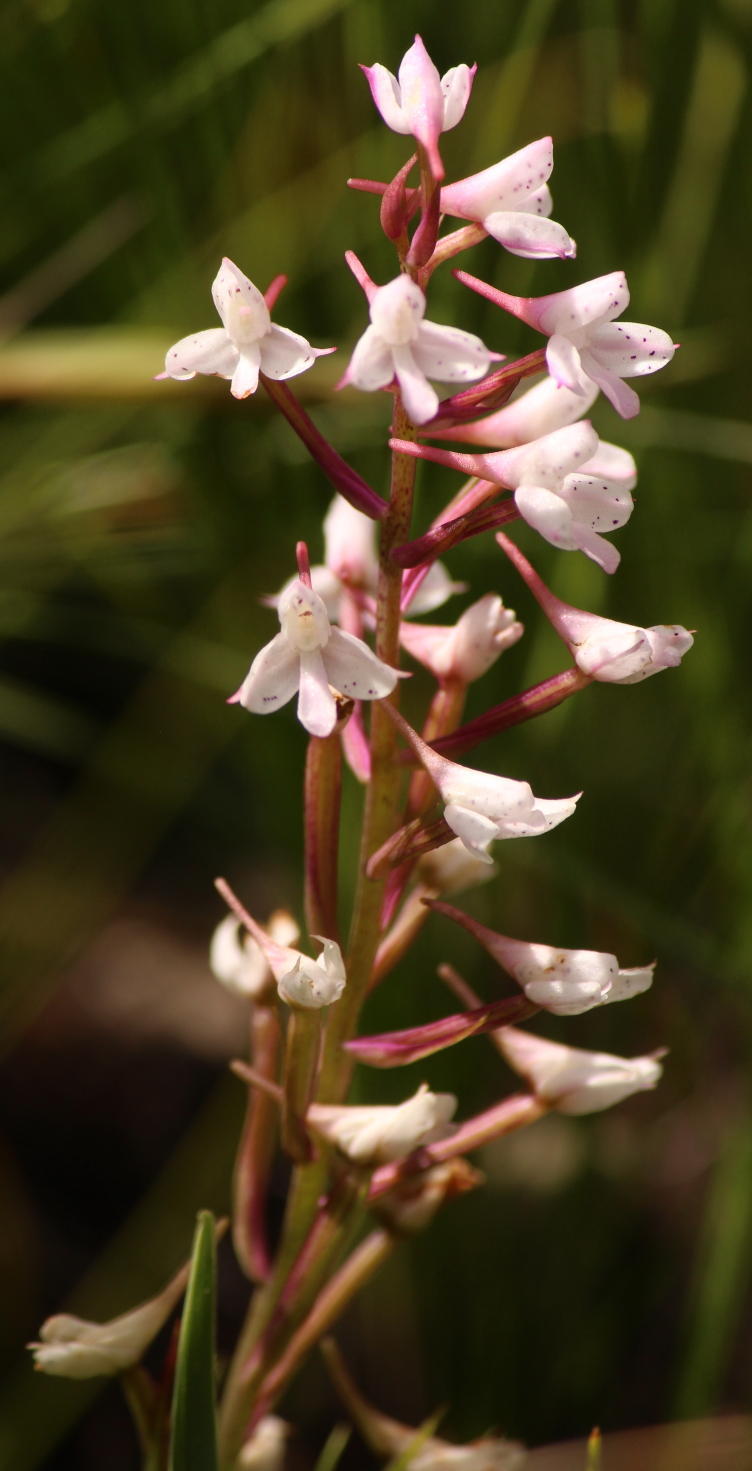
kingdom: Plantae
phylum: Tracheophyta
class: Liliopsida
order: Asparagales
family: Orchidaceae
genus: Disa
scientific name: Disa oreophila
